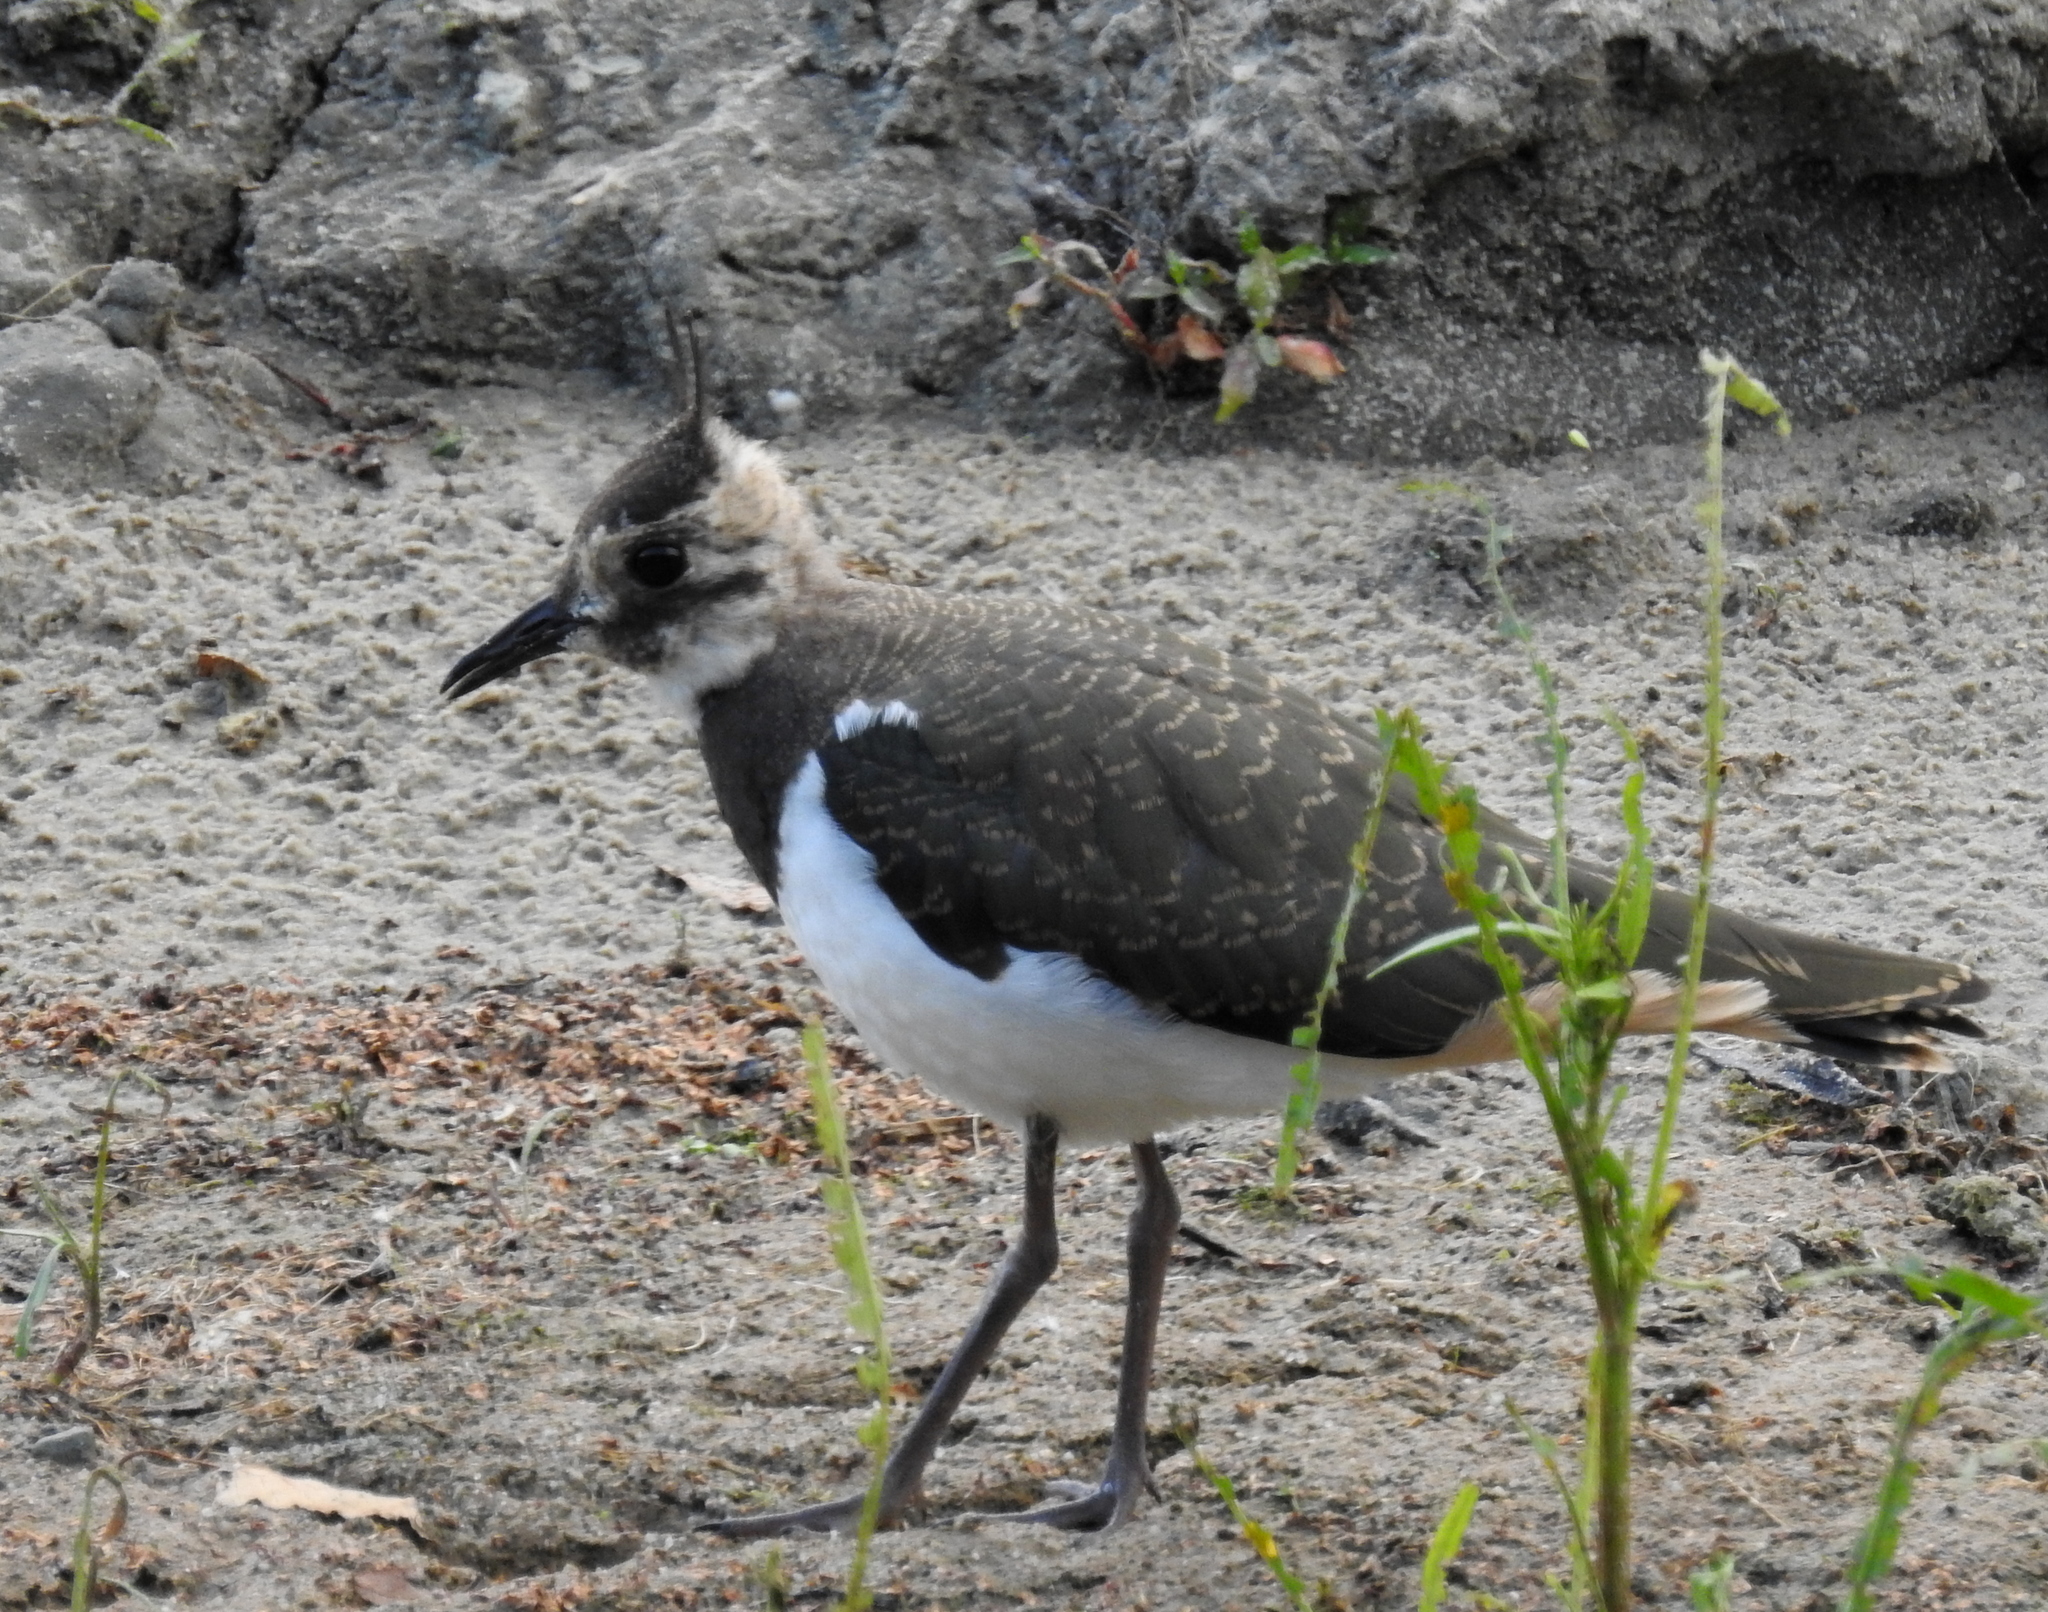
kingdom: Animalia
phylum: Chordata
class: Aves
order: Charadriiformes
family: Charadriidae
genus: Vanellus
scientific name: Vanellus vanellus
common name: Northern lapwing
